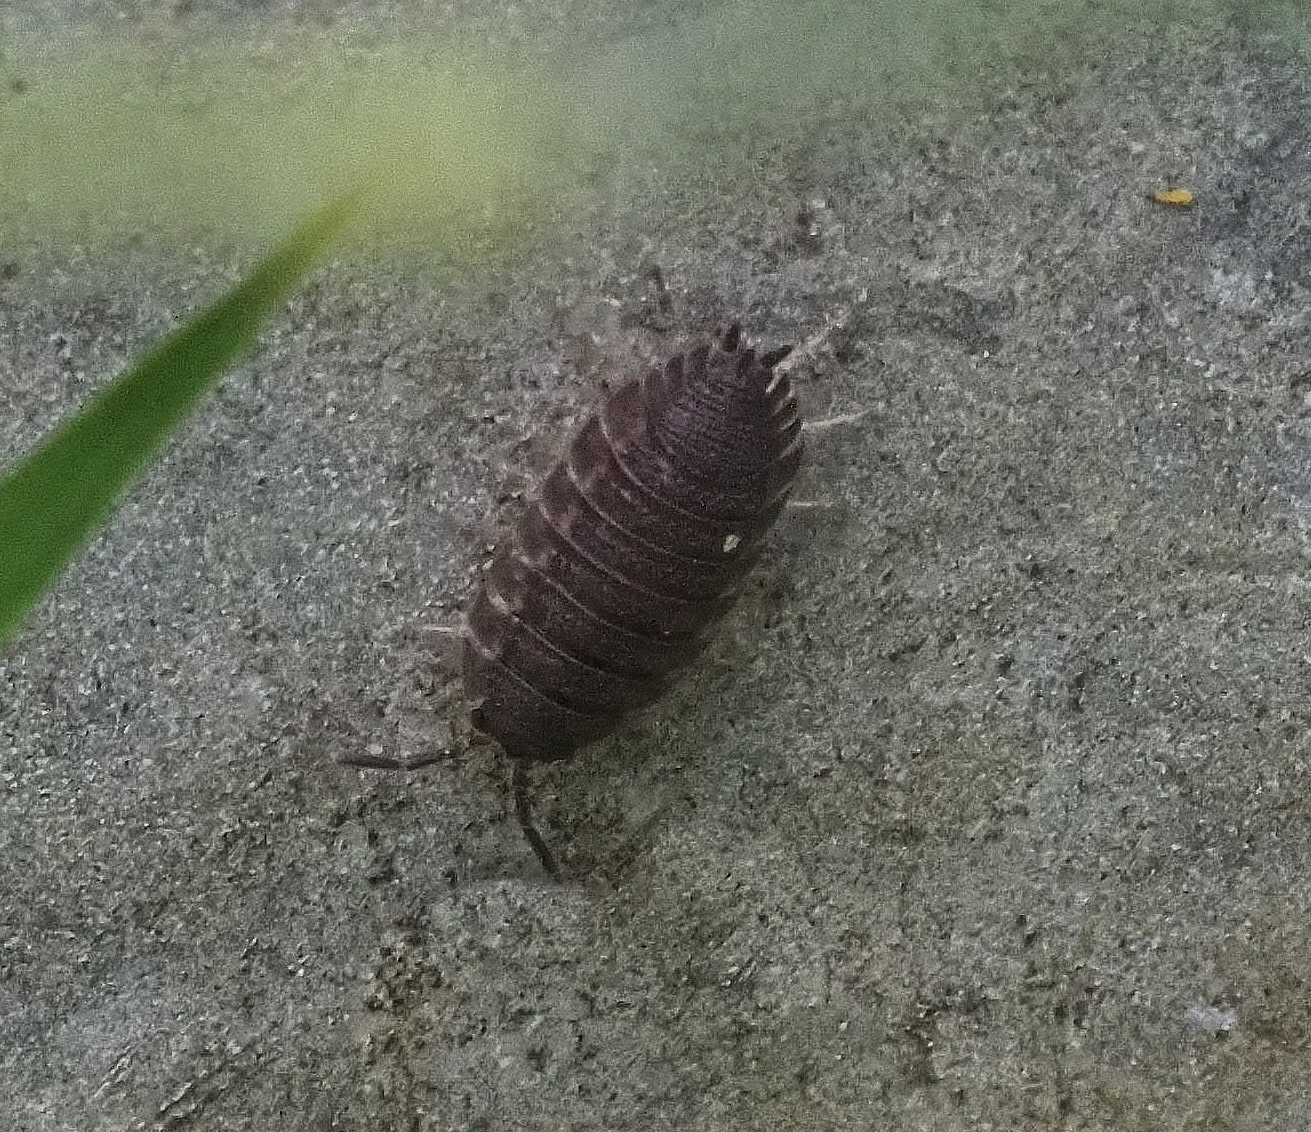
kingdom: Animalia
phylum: Arthropoda
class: Malacostraca
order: Isopoda
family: Porcellionidae
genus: Porcellio
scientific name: Porcellio scaber
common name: Common rough woodlouse
